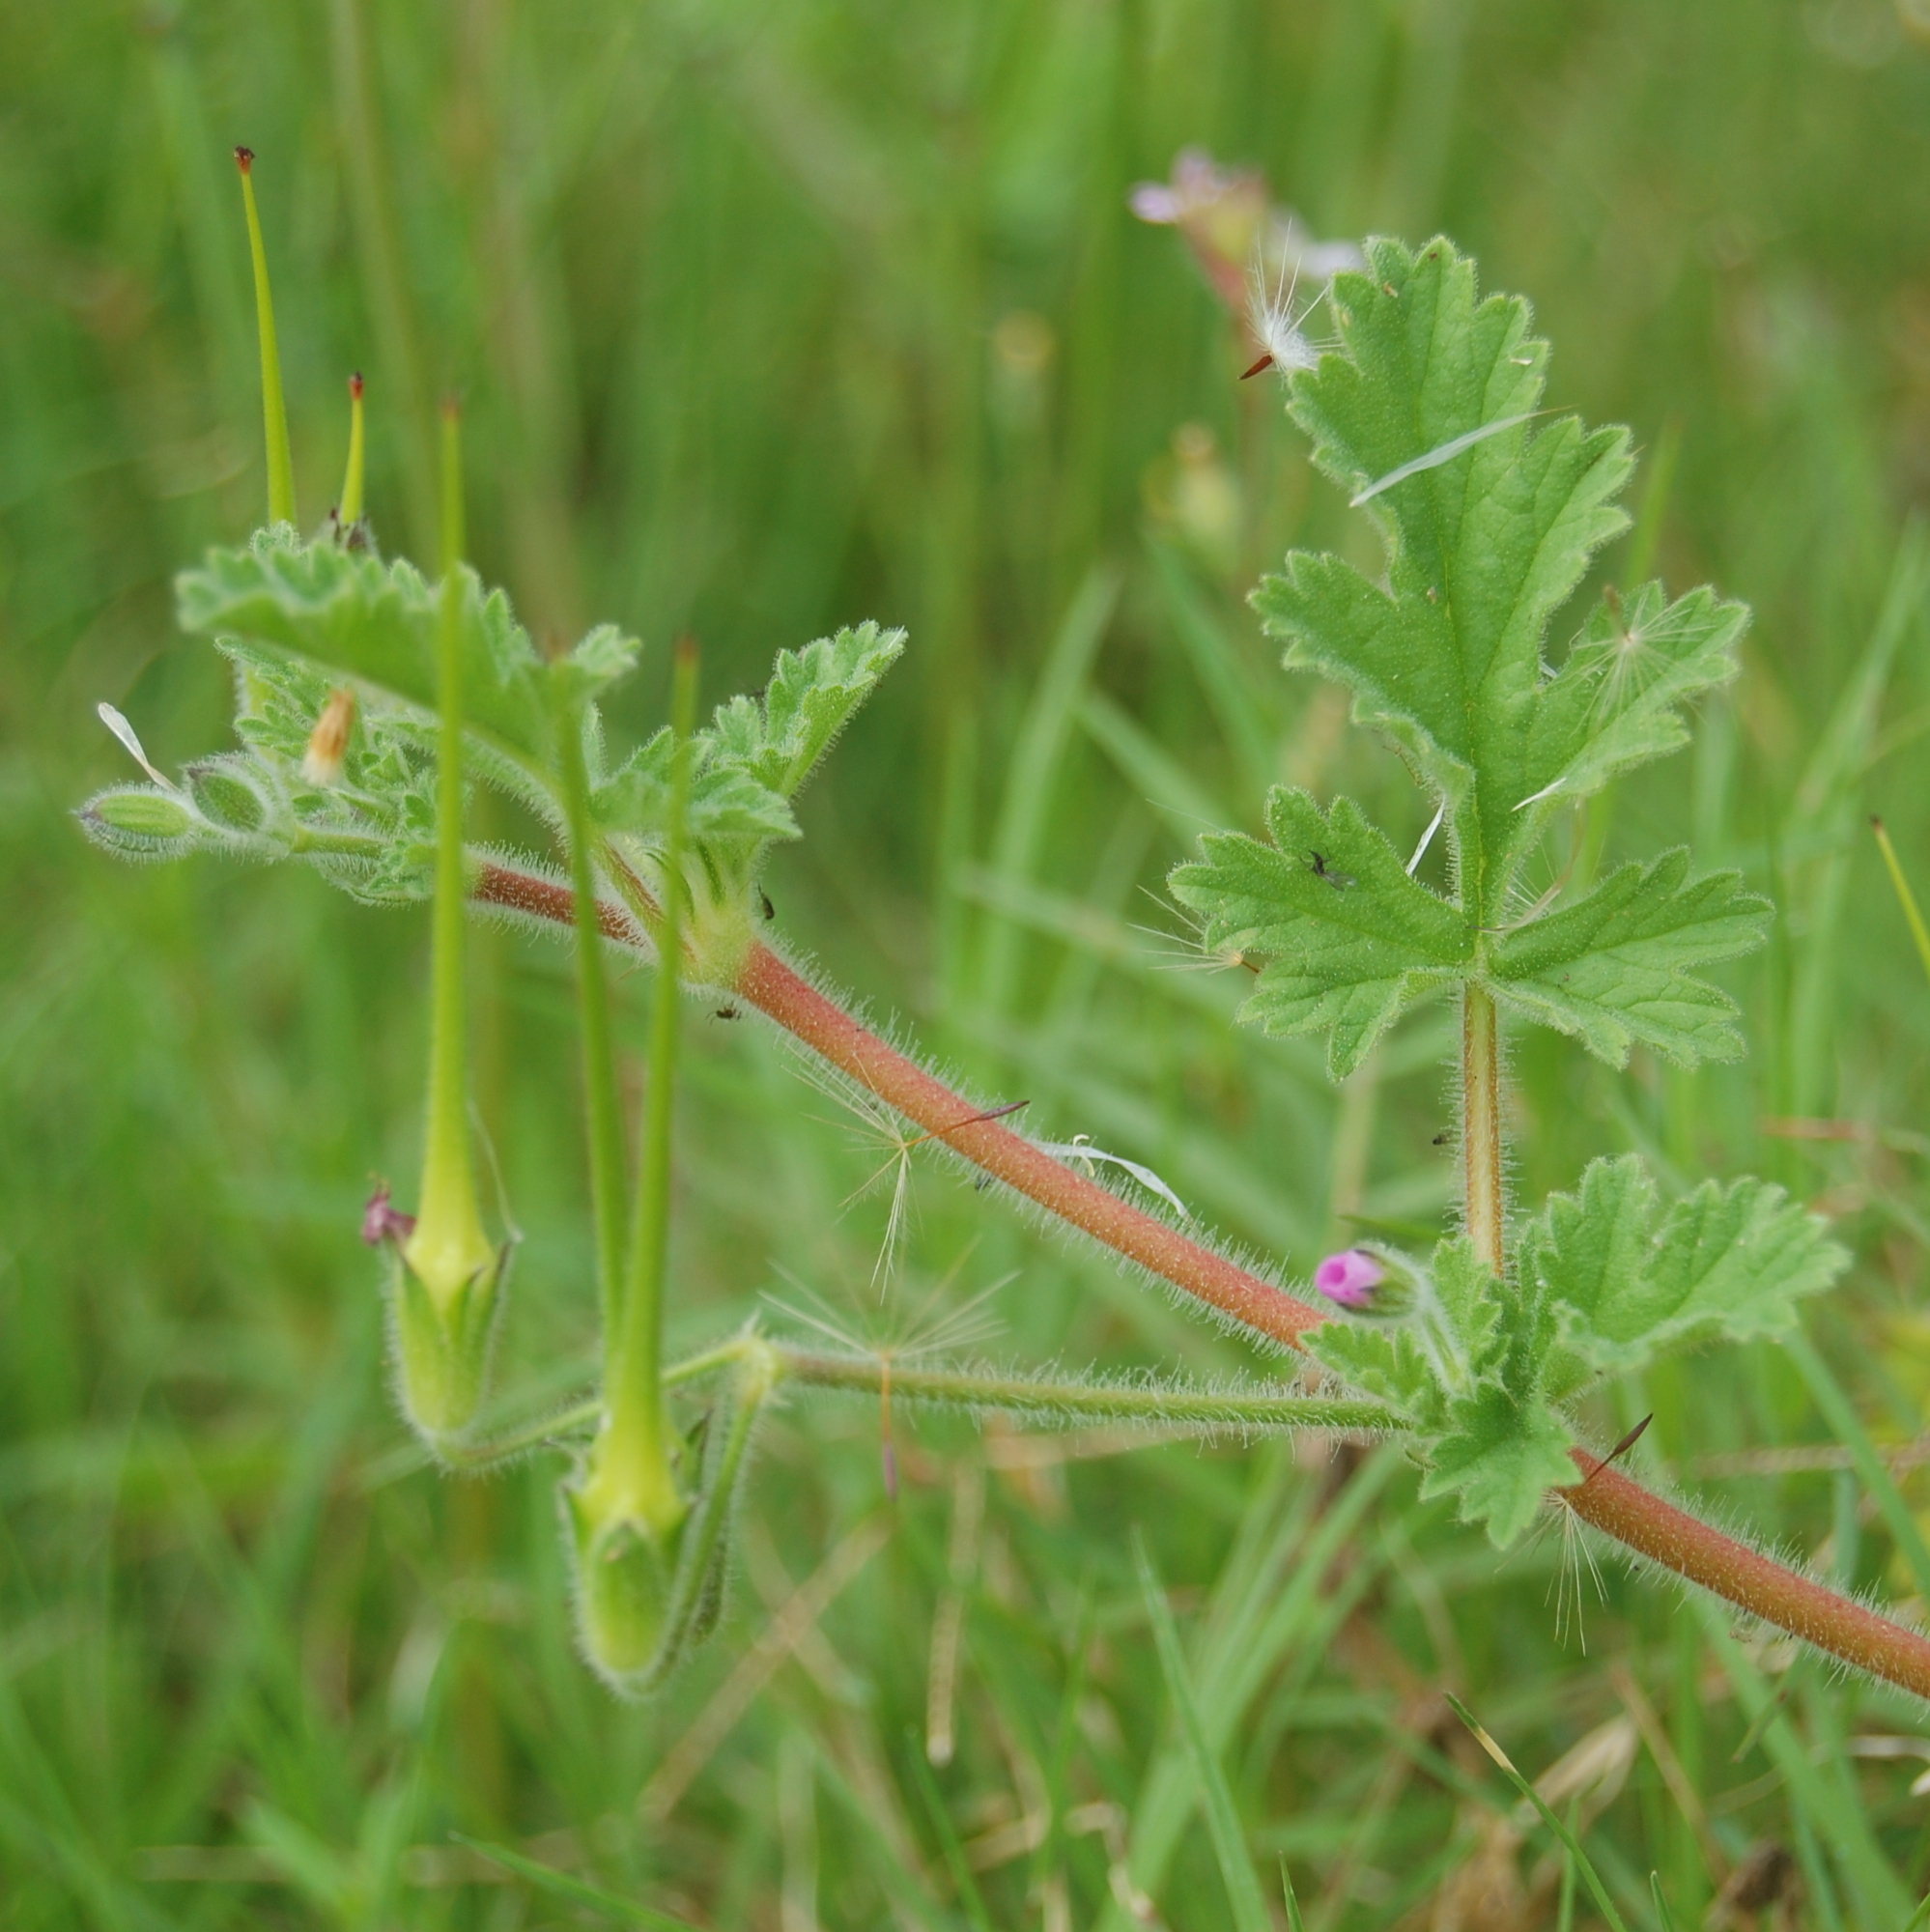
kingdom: Plantae
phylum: Tracheophyta
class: Magnoliopsida
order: Geraniales
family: Geraniaceae
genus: Erodium
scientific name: Erodium geoides
